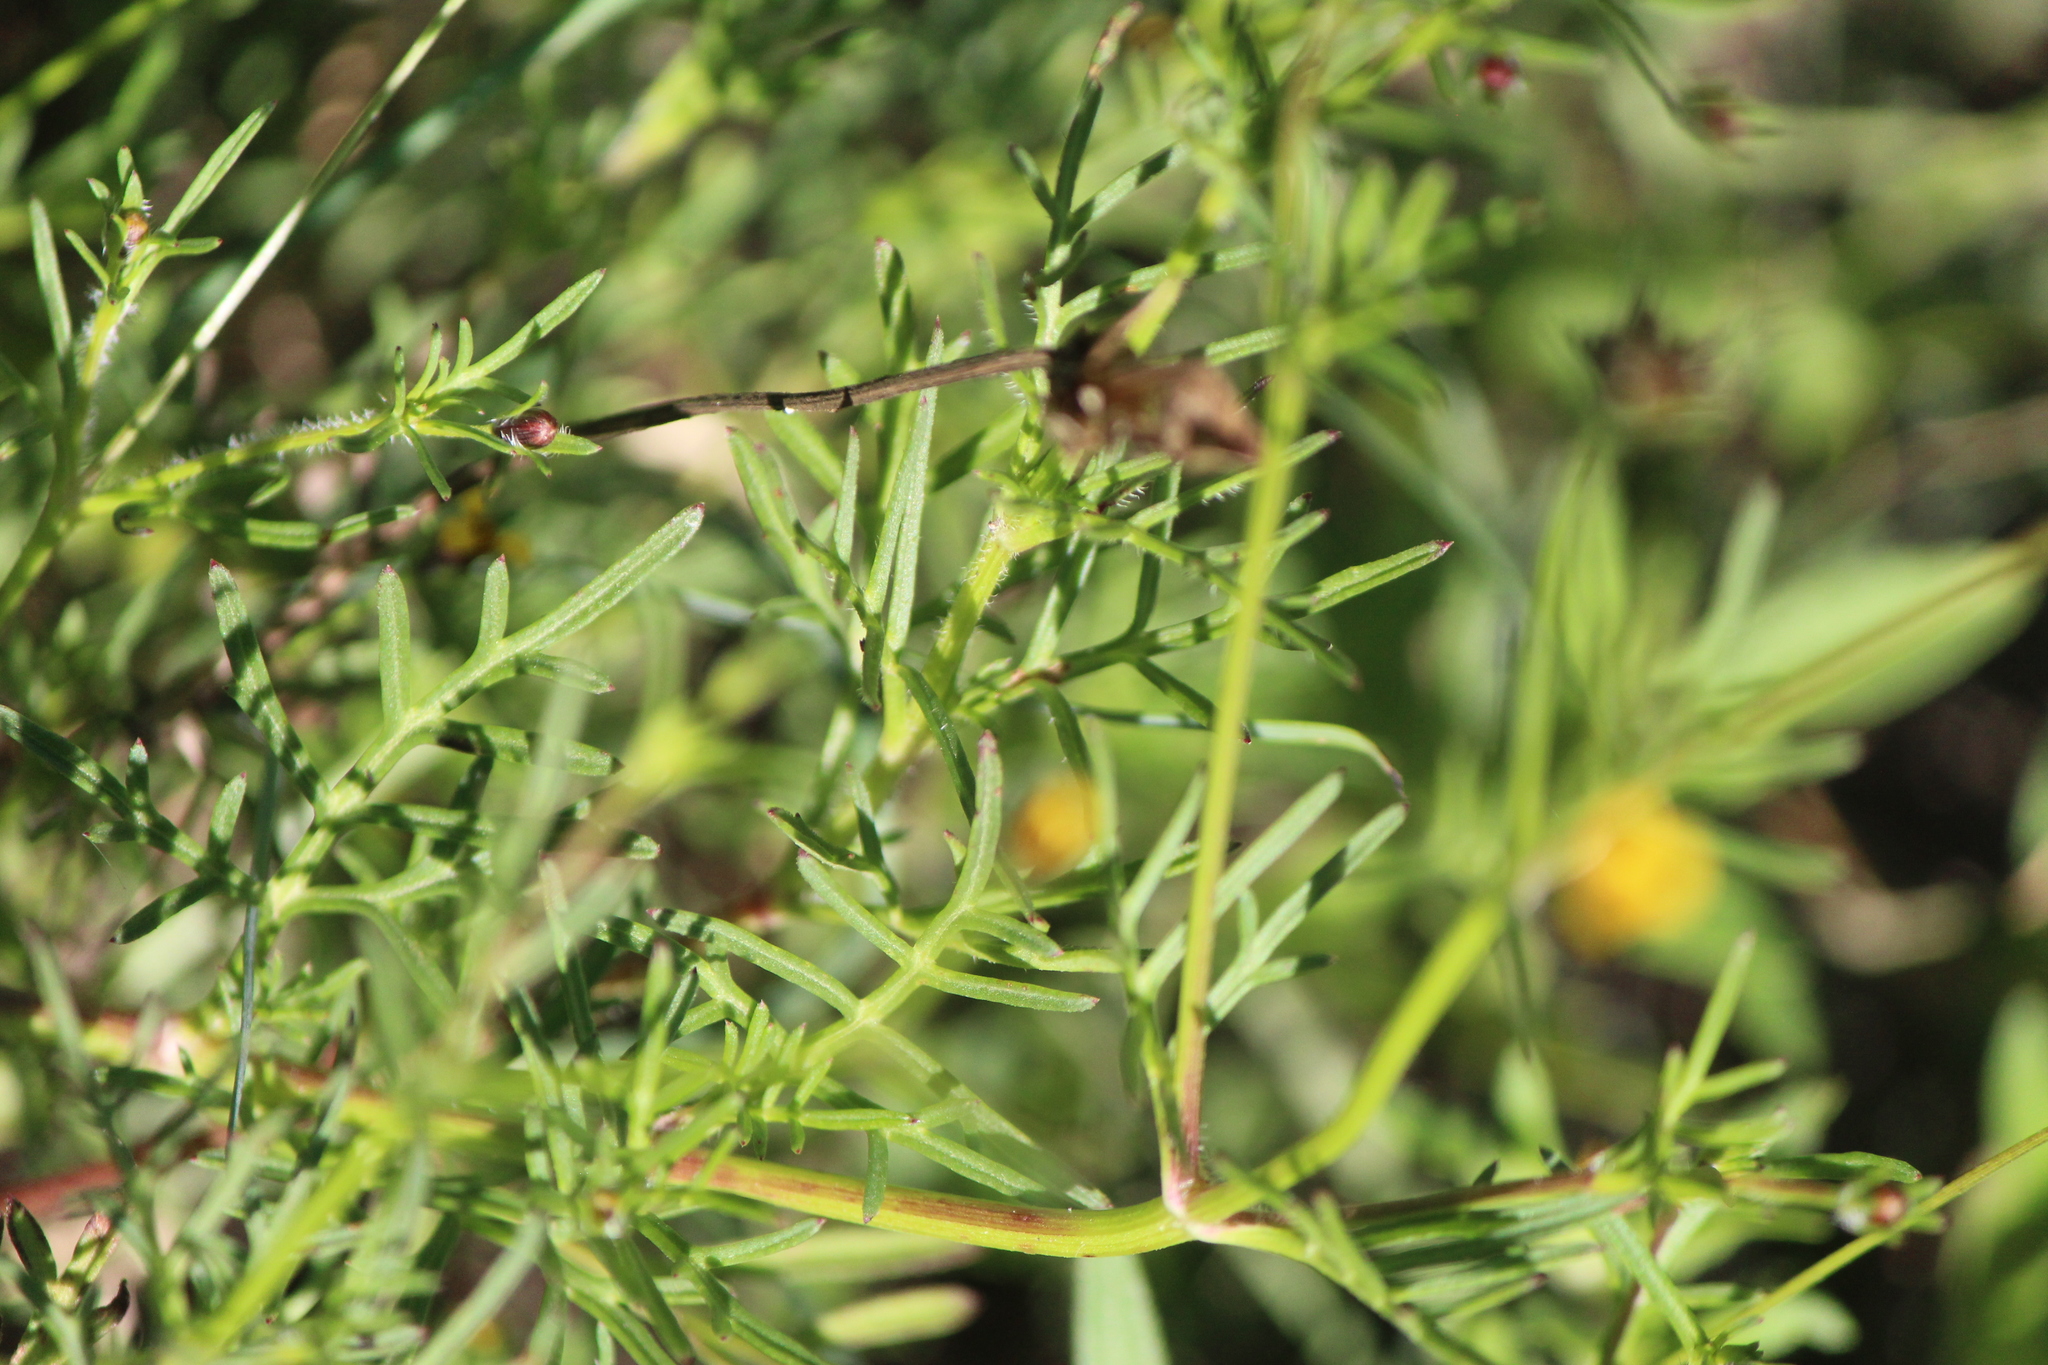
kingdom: Plantae
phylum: Tracheophyta
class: Magnoliopsida
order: Asterales
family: Asteraceae
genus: Heterosperma
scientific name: Heterosperma pinnatum
